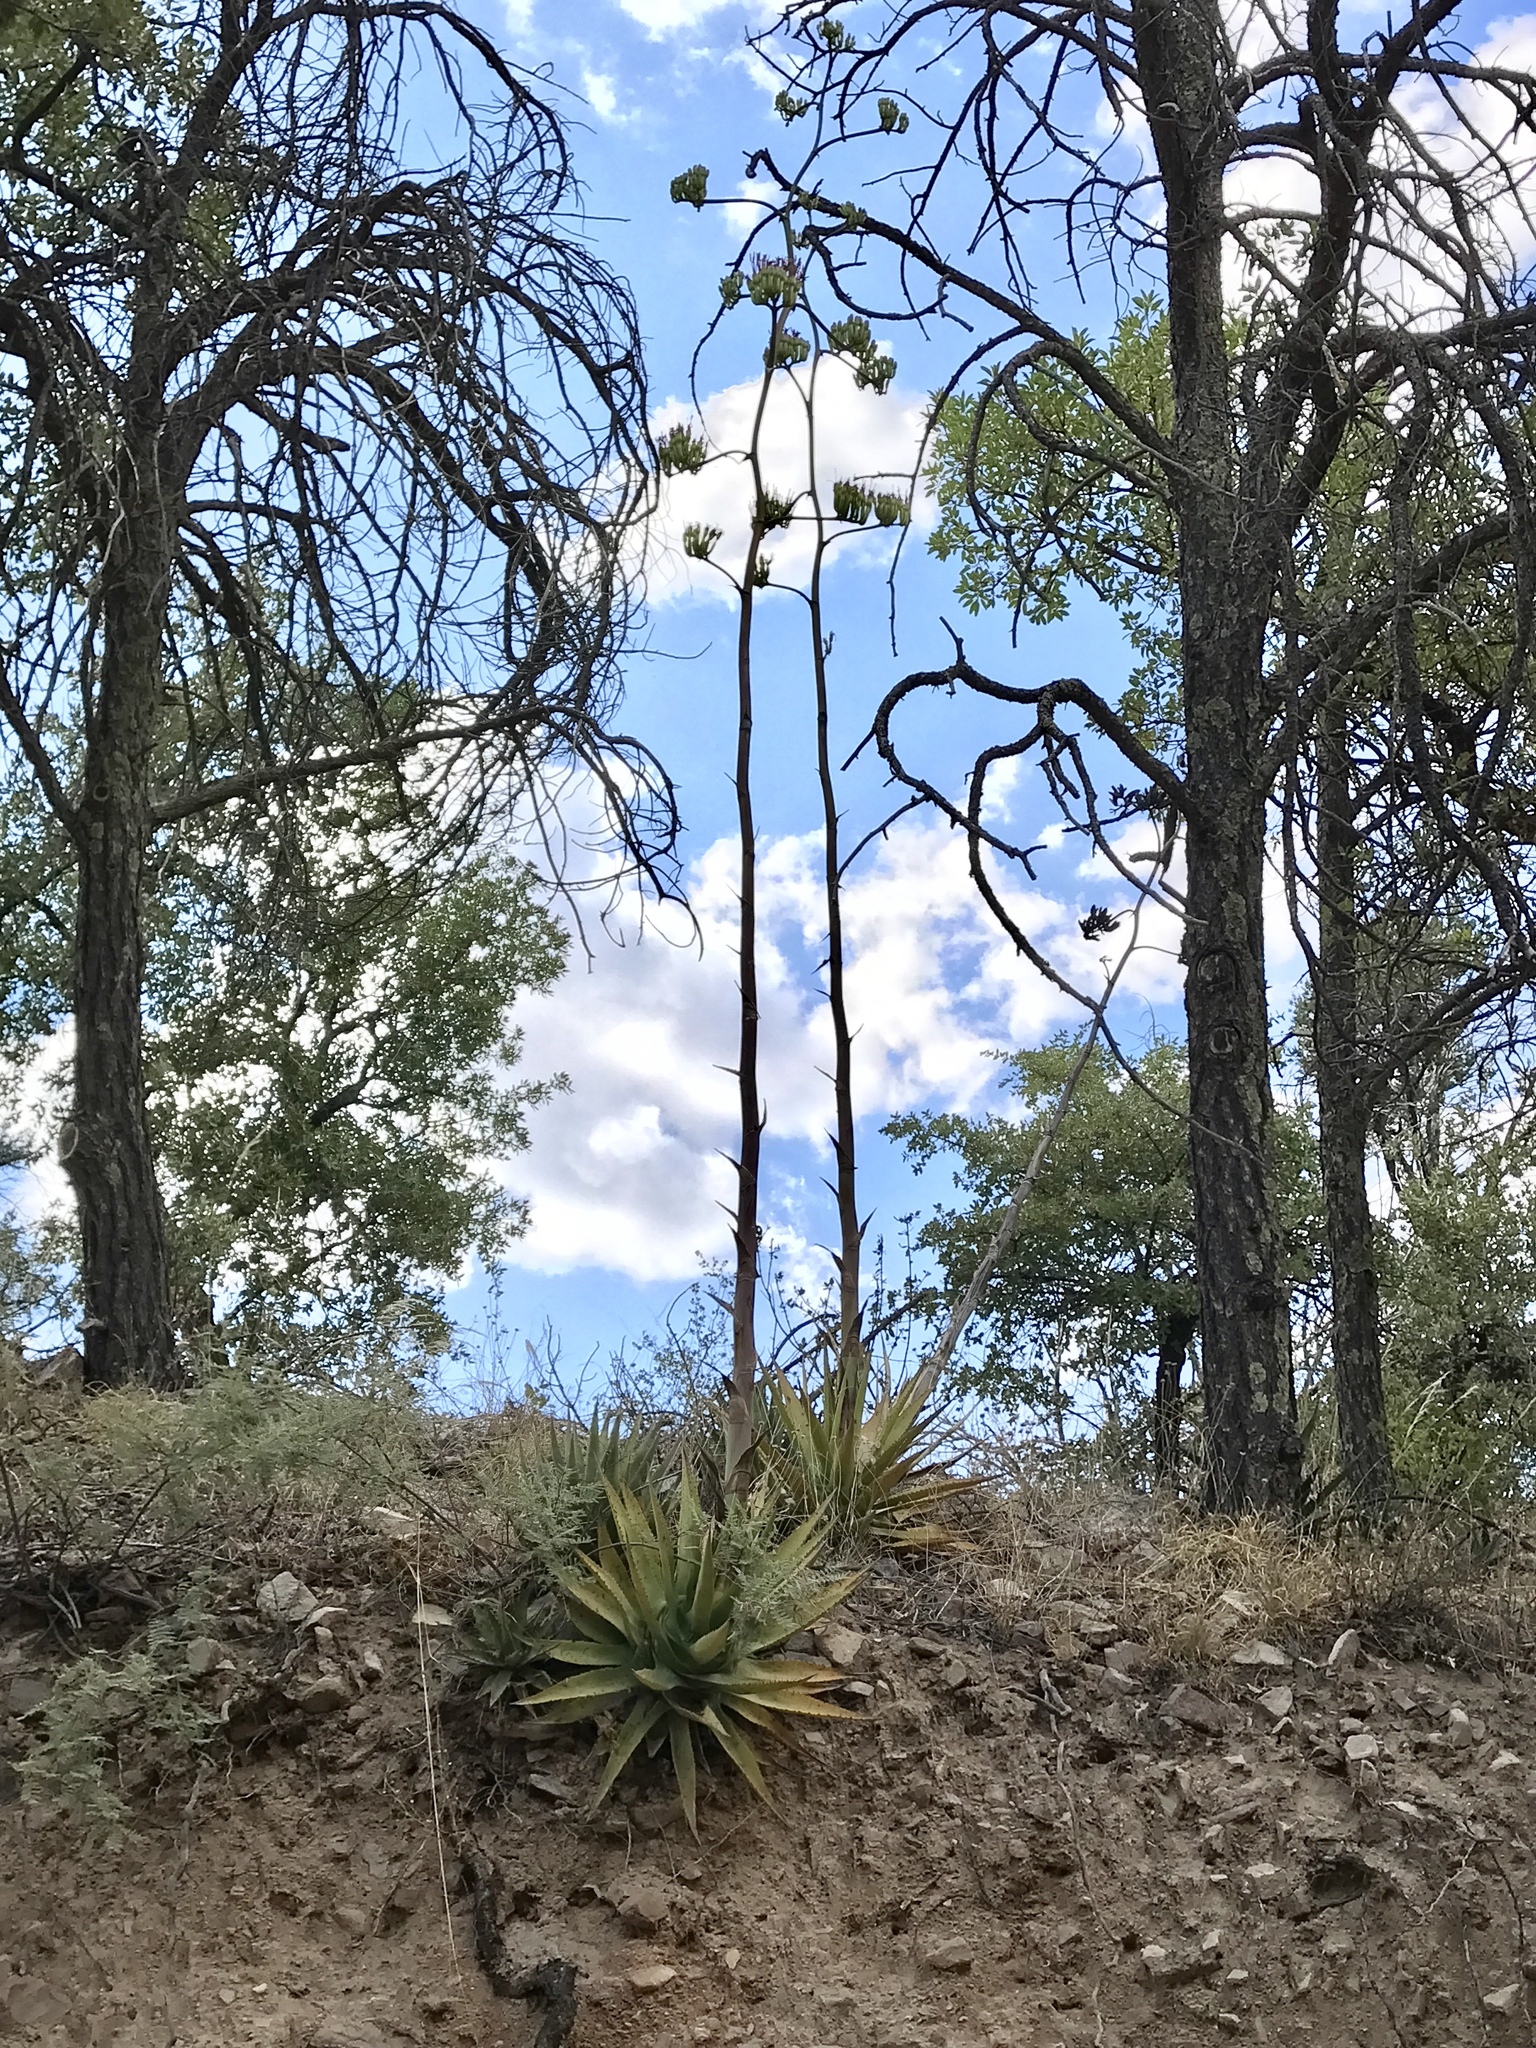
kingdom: Plantae
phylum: Tracheophyta
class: Liliopsida
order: Asparagales
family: Asparagaceae
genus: Agave
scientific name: Agave palmeri
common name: Palmer agave
